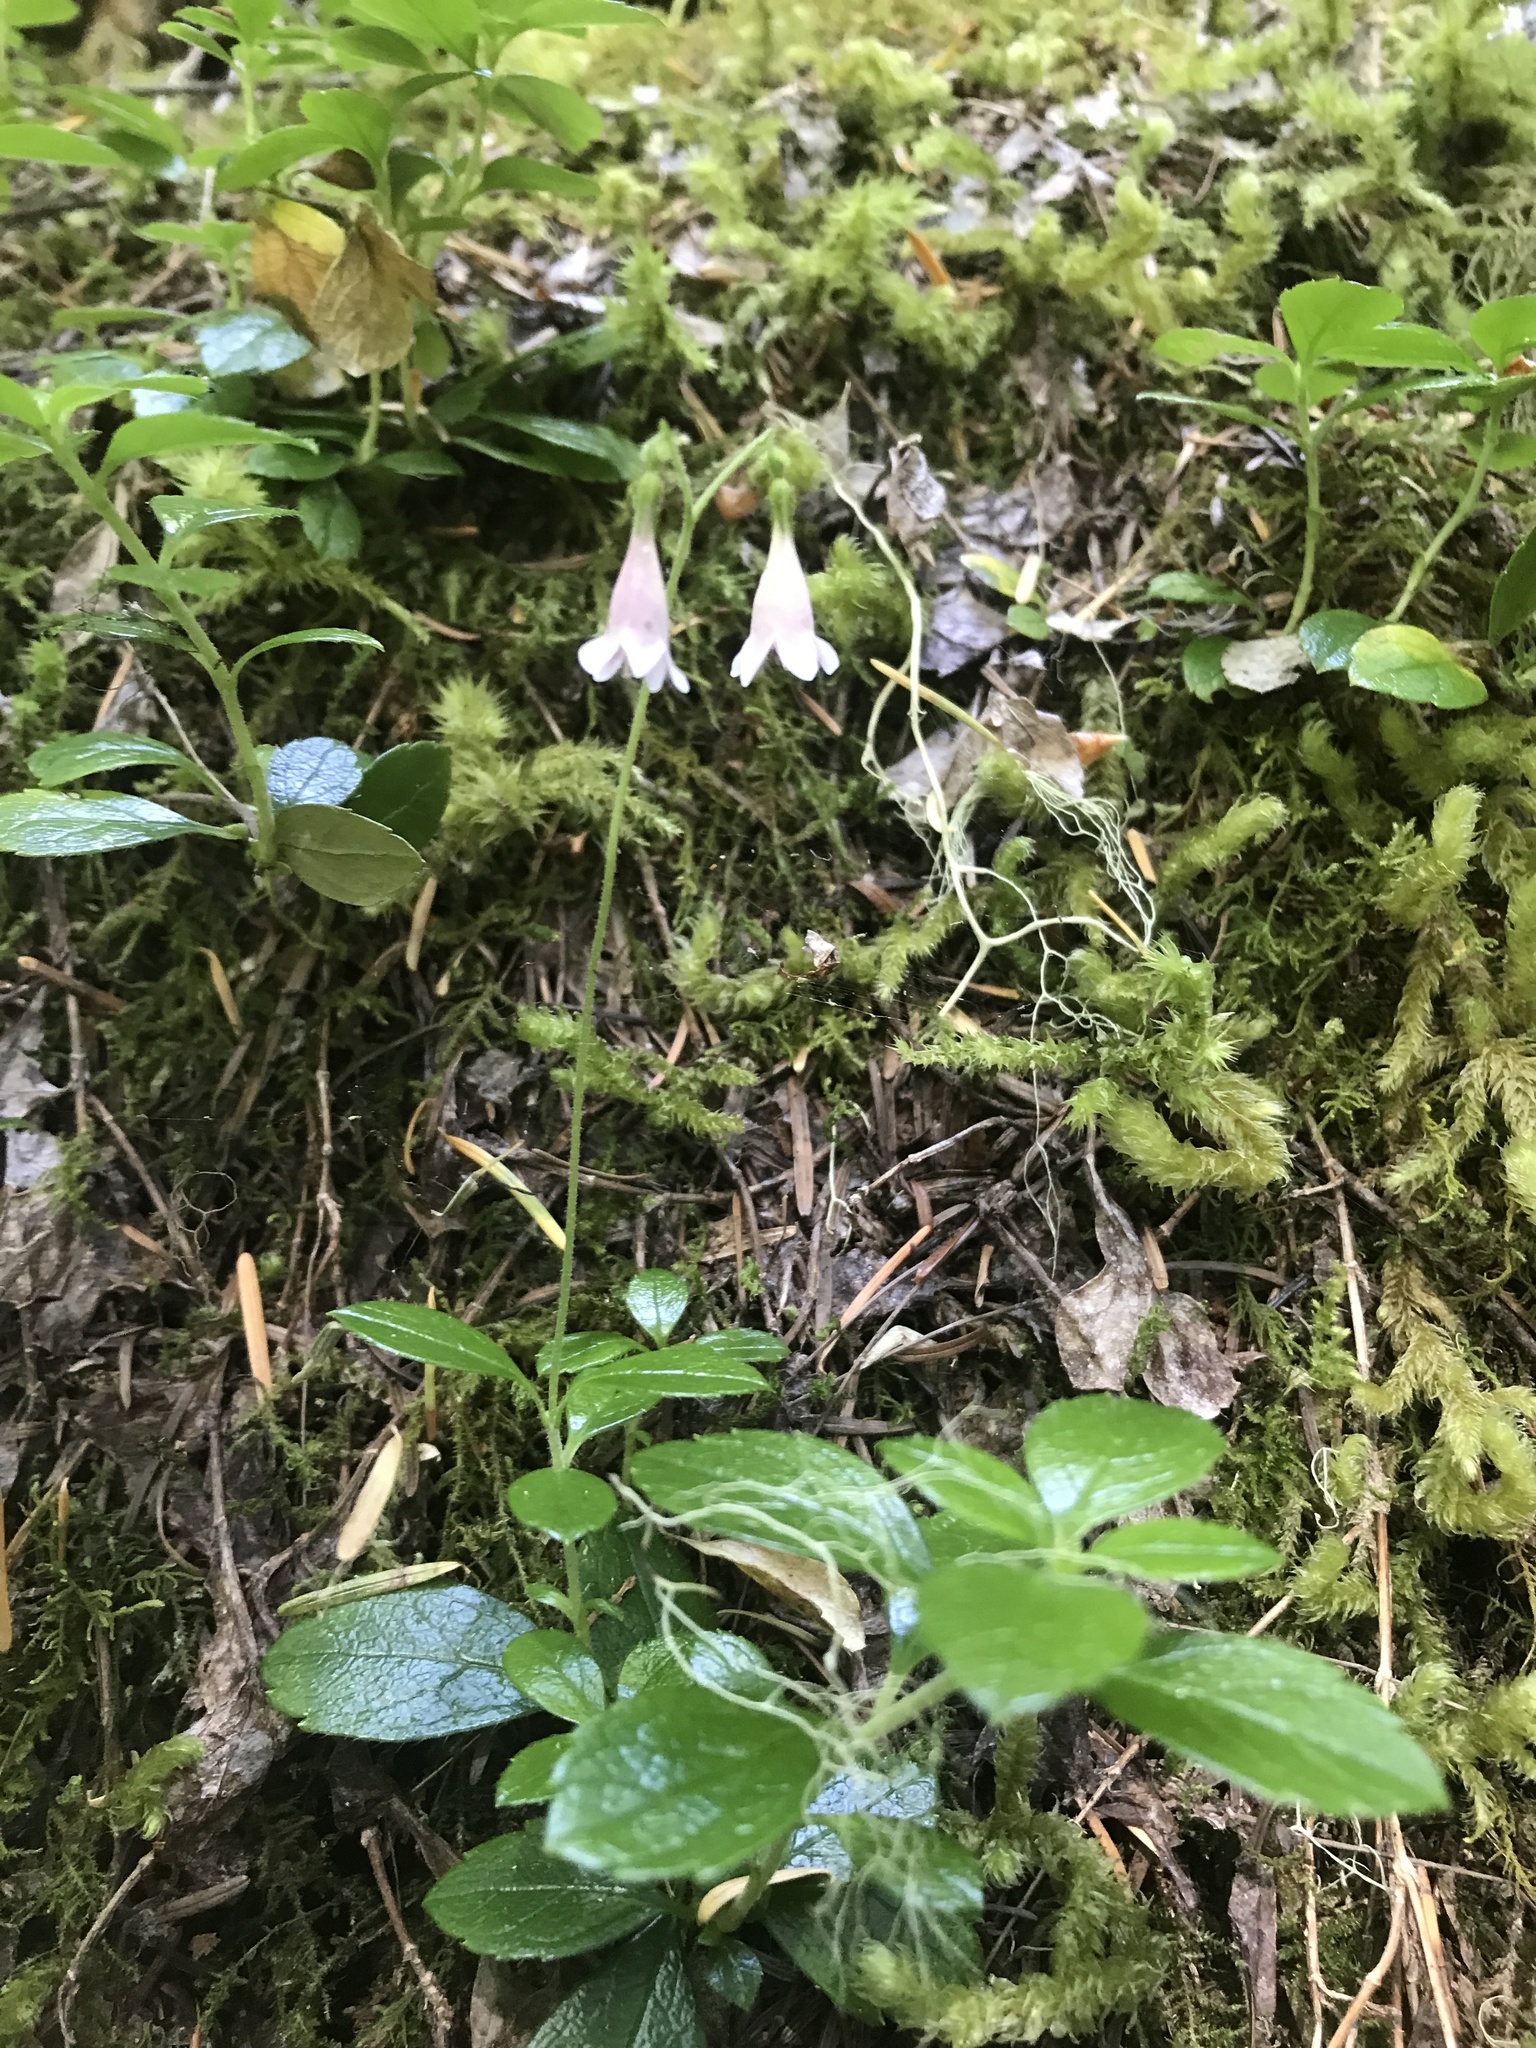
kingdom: Plantae
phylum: Tracheophyta
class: Magnoliopsida
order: Dipsacales
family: Caprifoliaceae
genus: Linnaea
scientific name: Linnaea borealis
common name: Twinflower
